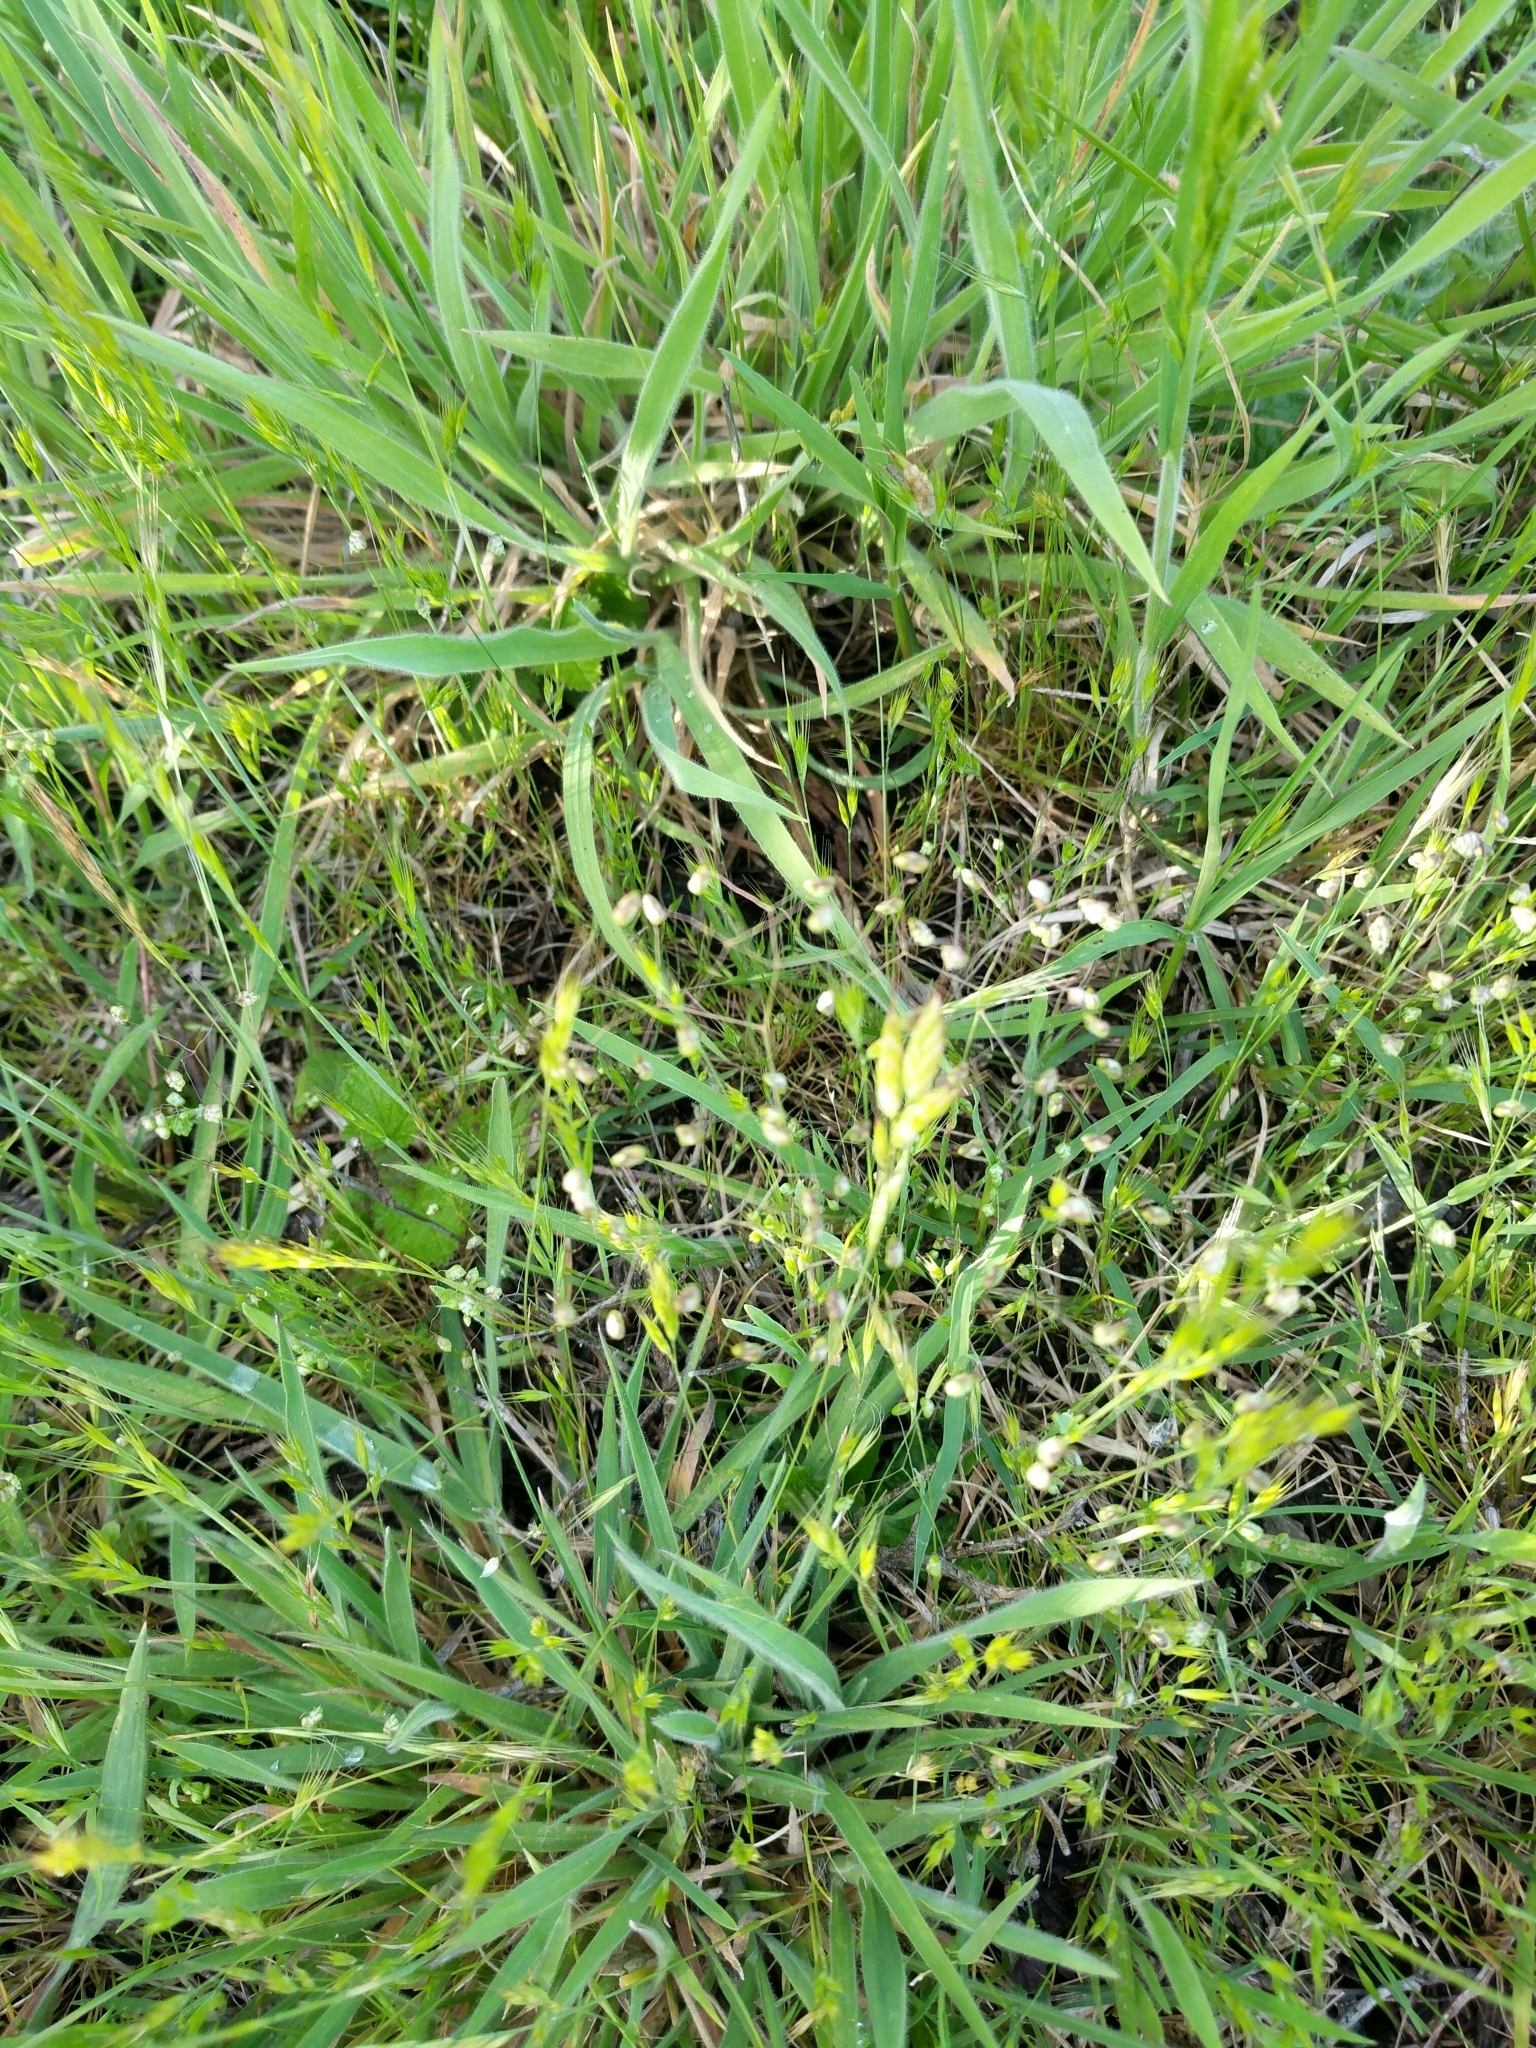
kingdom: Plantae
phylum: Tracheophyta
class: Liliopsida
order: Poales
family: Poaceae
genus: Briza
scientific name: Briza minor
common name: Lesser quaking-grass
